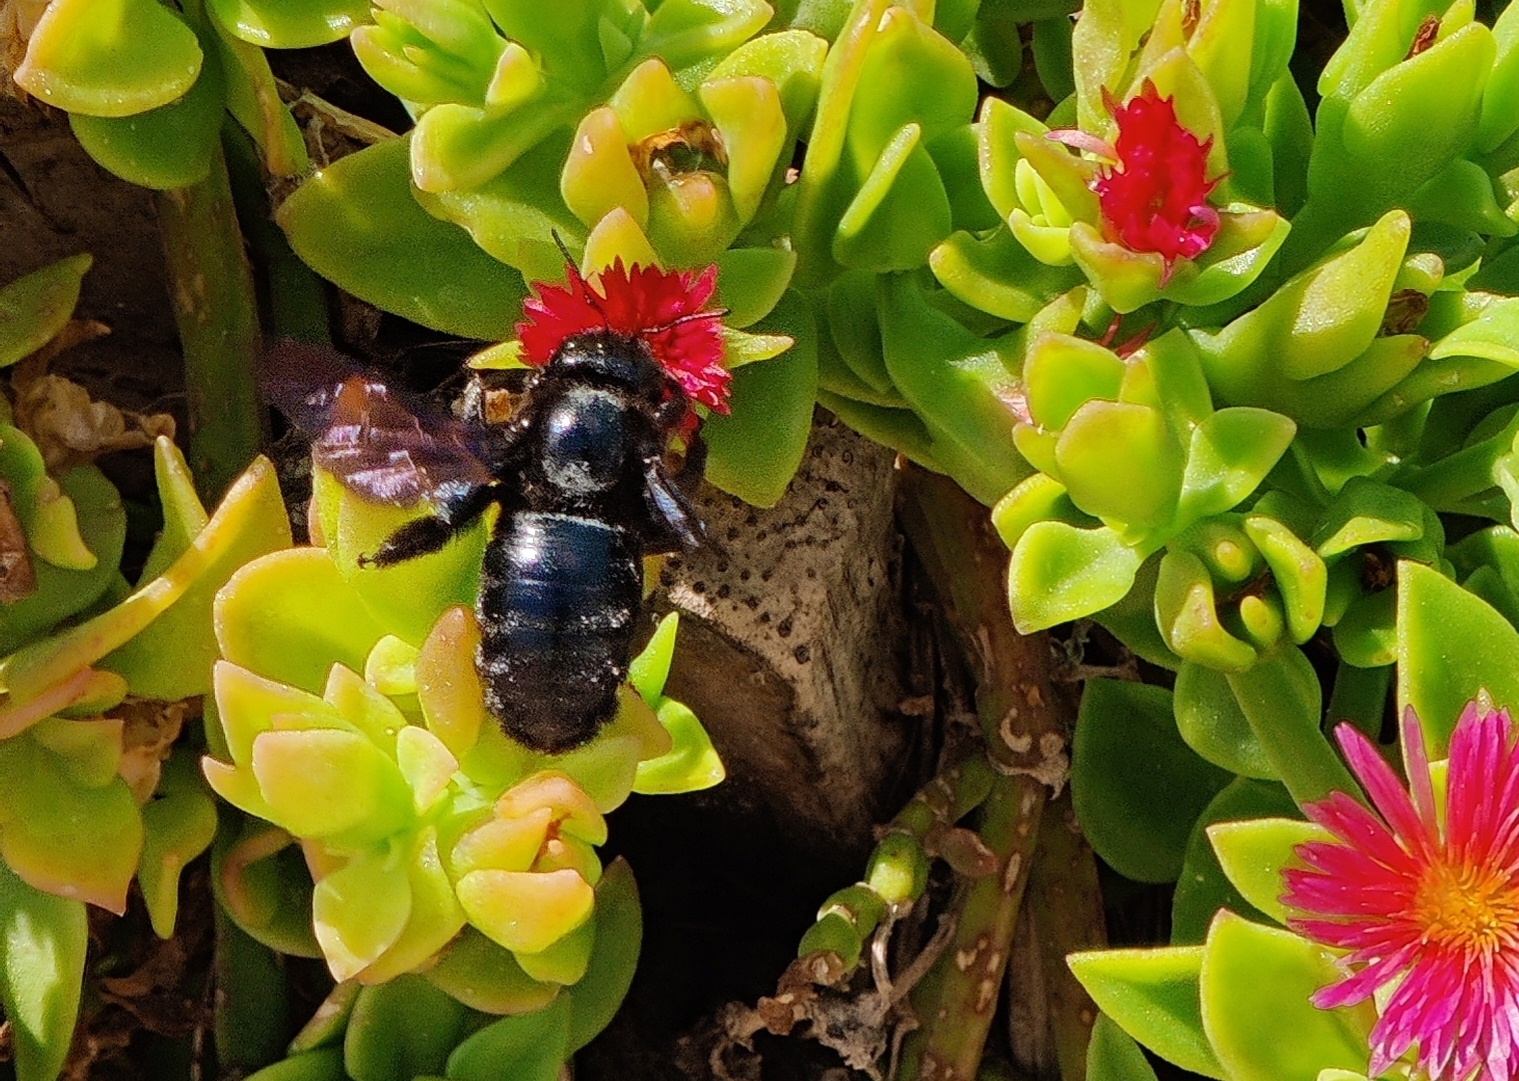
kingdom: Animalia
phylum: Arthropoda
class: Insecta
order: Hymenoptera
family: Apidae
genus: Xylocopa
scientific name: Xylocopa violacea
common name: Violet carpenter bee
